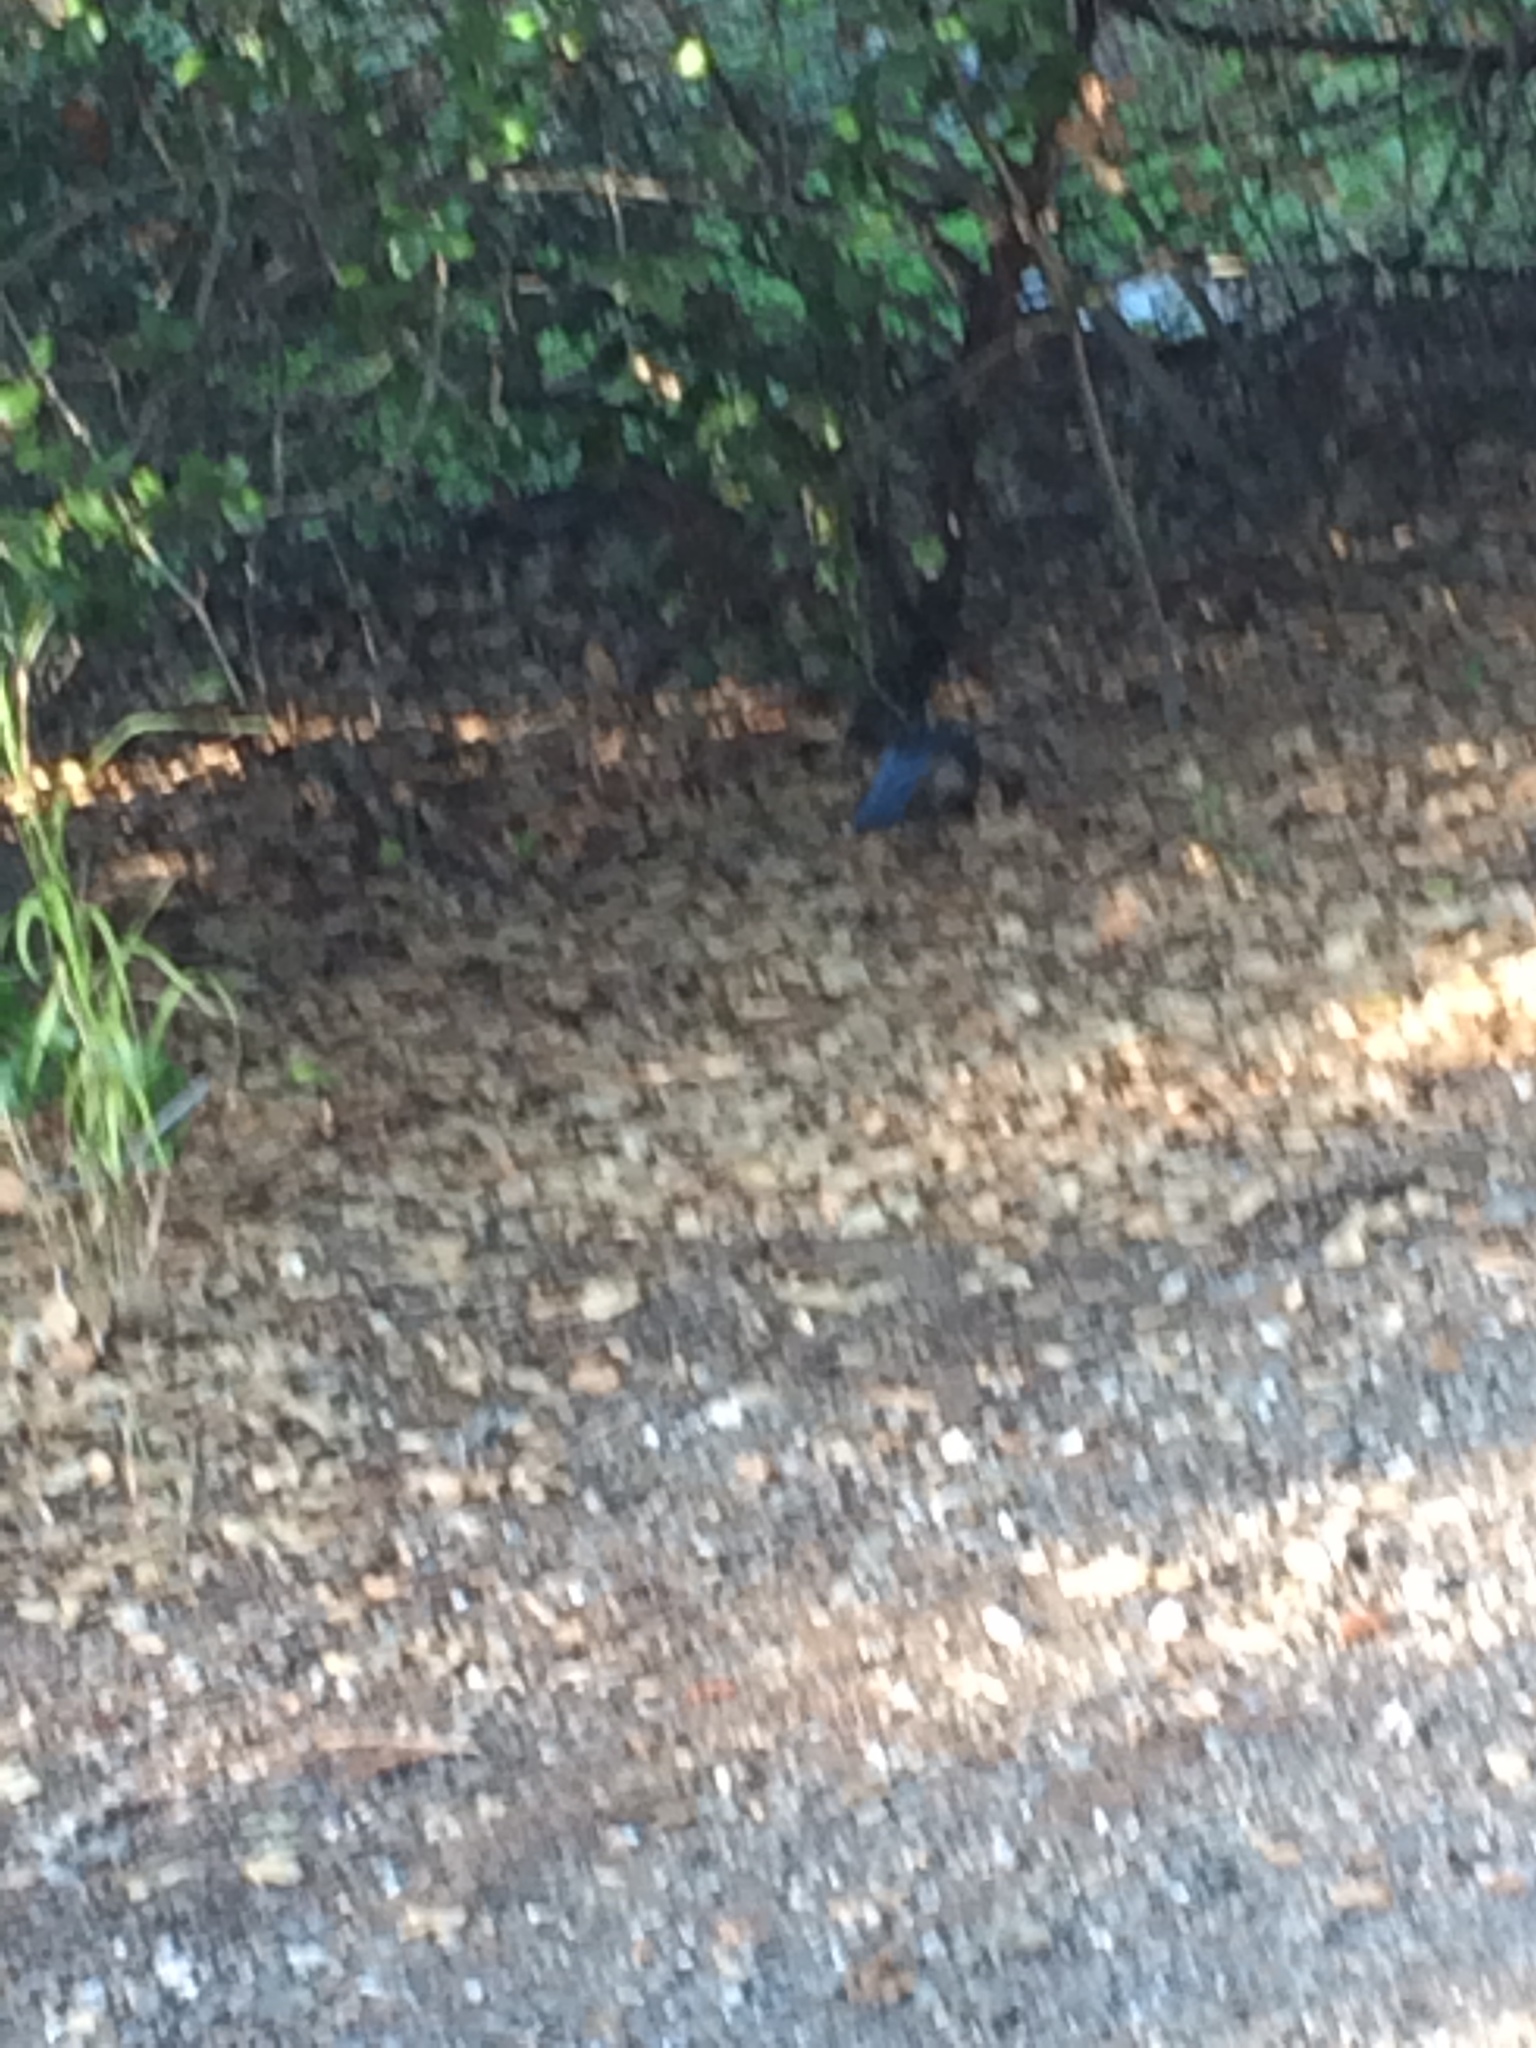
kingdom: Animalia
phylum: Chordata
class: Aves
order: Passeriformes
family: Corvidae
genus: Aphelocoma
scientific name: Aphelocoma californica
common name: California scrub-jay
